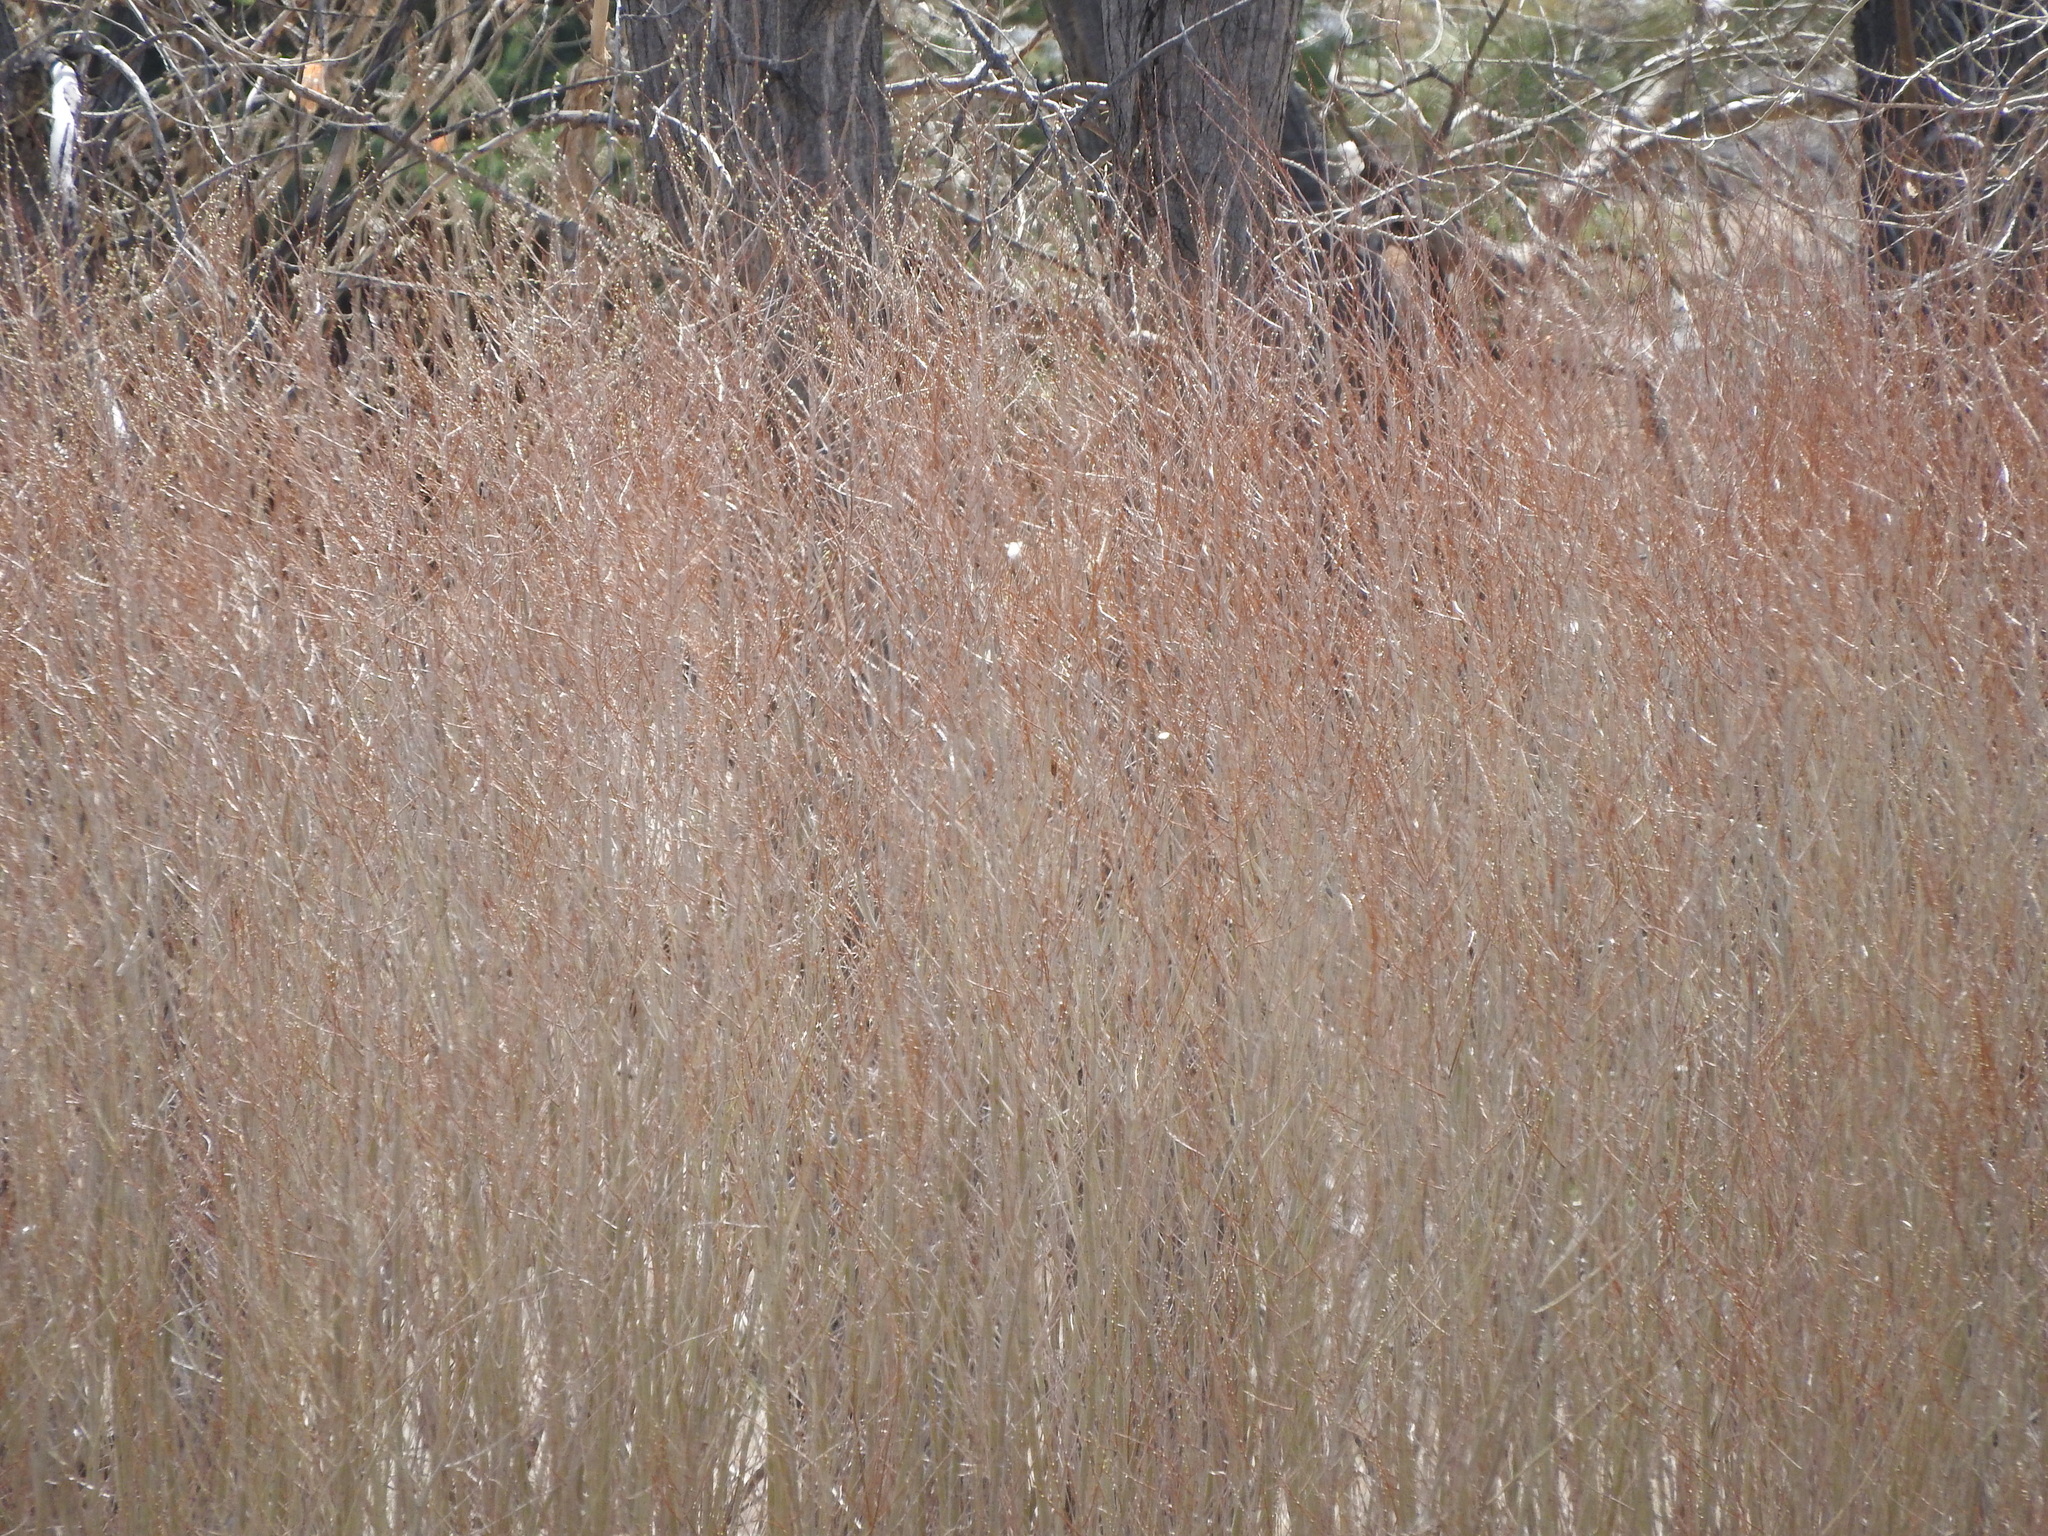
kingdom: Plantae
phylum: Tracheophyta
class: Magnoliopsida
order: Malpighiales
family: Salicaceae
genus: Salix
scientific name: Salix interior
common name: Sandbar willow
